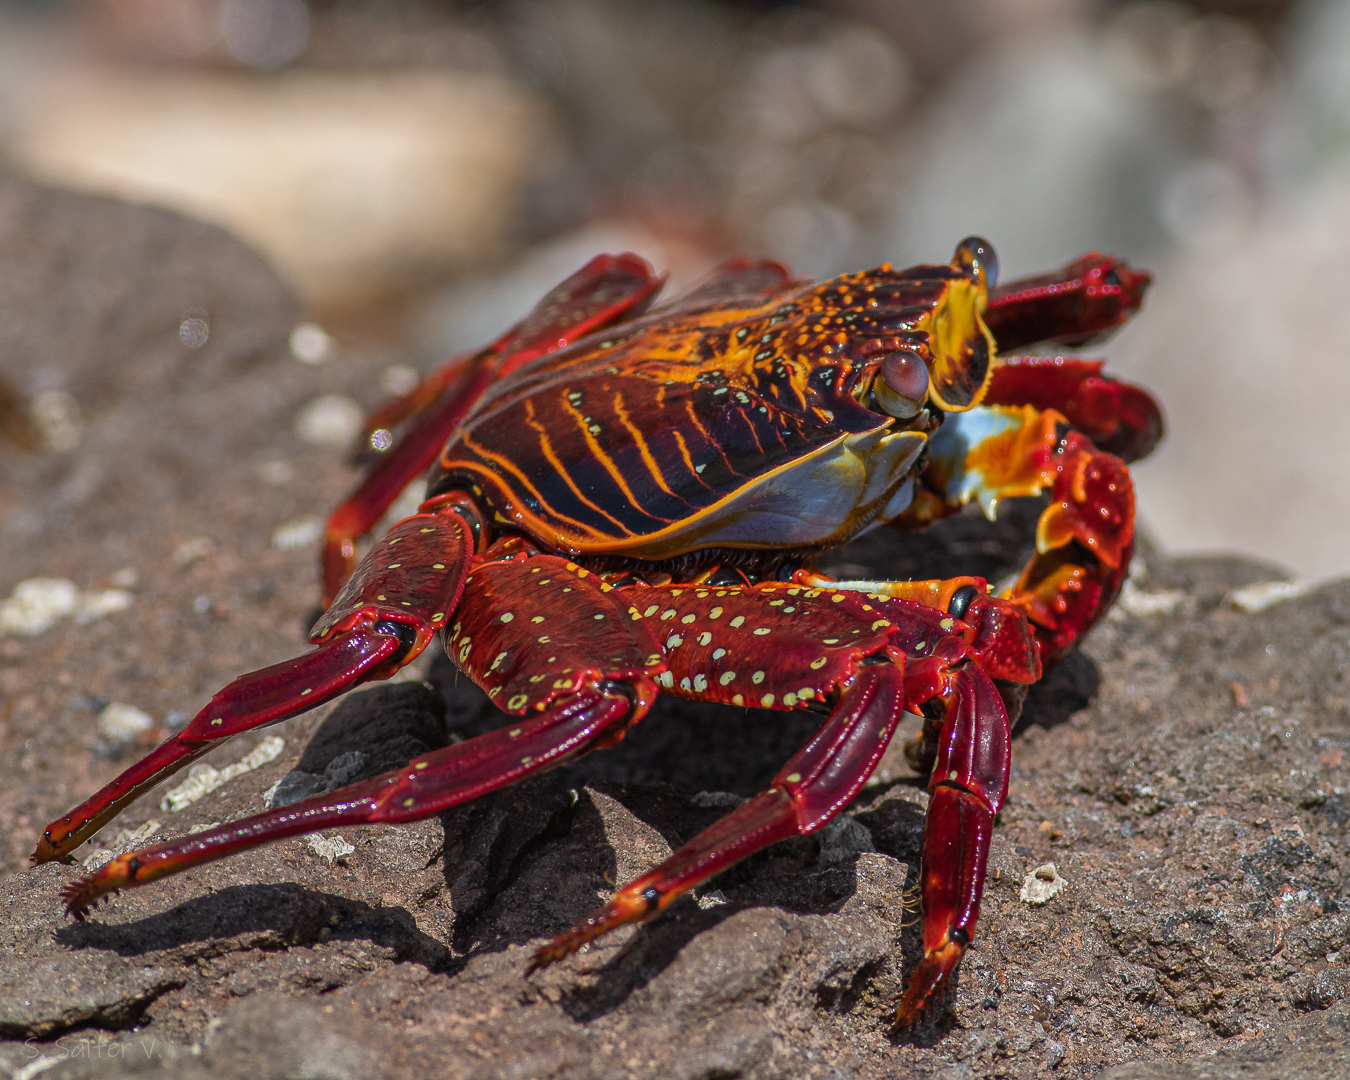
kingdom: Animalia
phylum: Arthropoda
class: Malacostraca
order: Decapoda
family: Grapsidae
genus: Grapsus
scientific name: Grapsus grapsus
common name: Sally lightfoot
